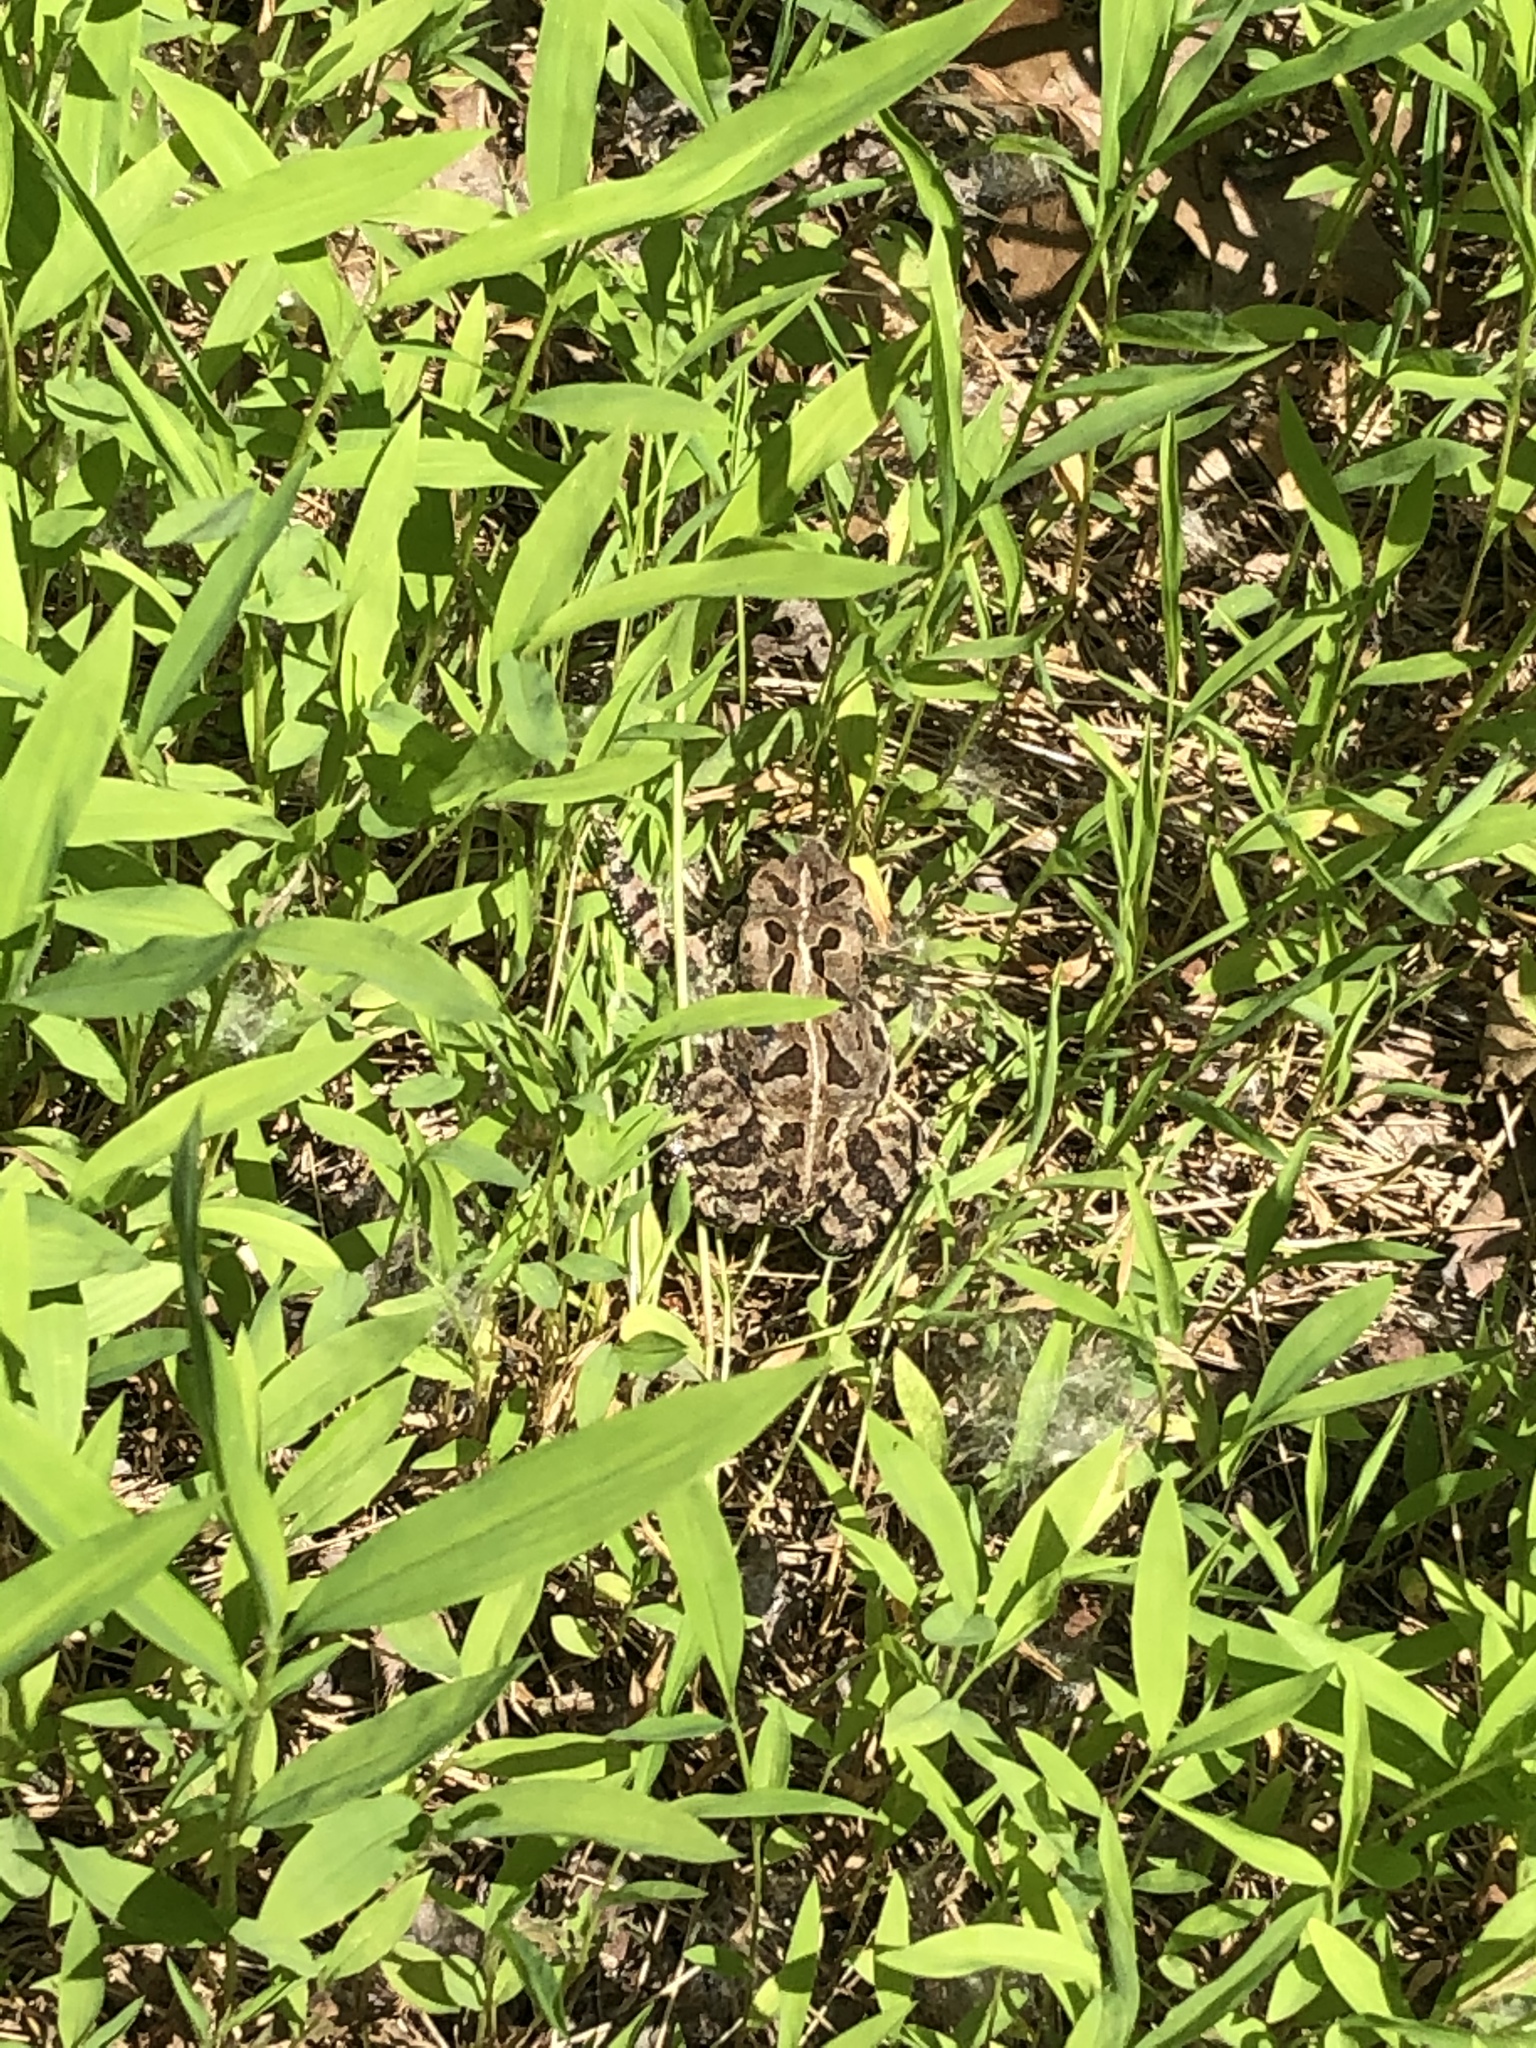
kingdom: Animalia
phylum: Chordata
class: Amphibia
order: Anura
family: Bufonidae
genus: Anaxyrus
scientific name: Anaxyrus fowleri
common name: Fowler's toad
